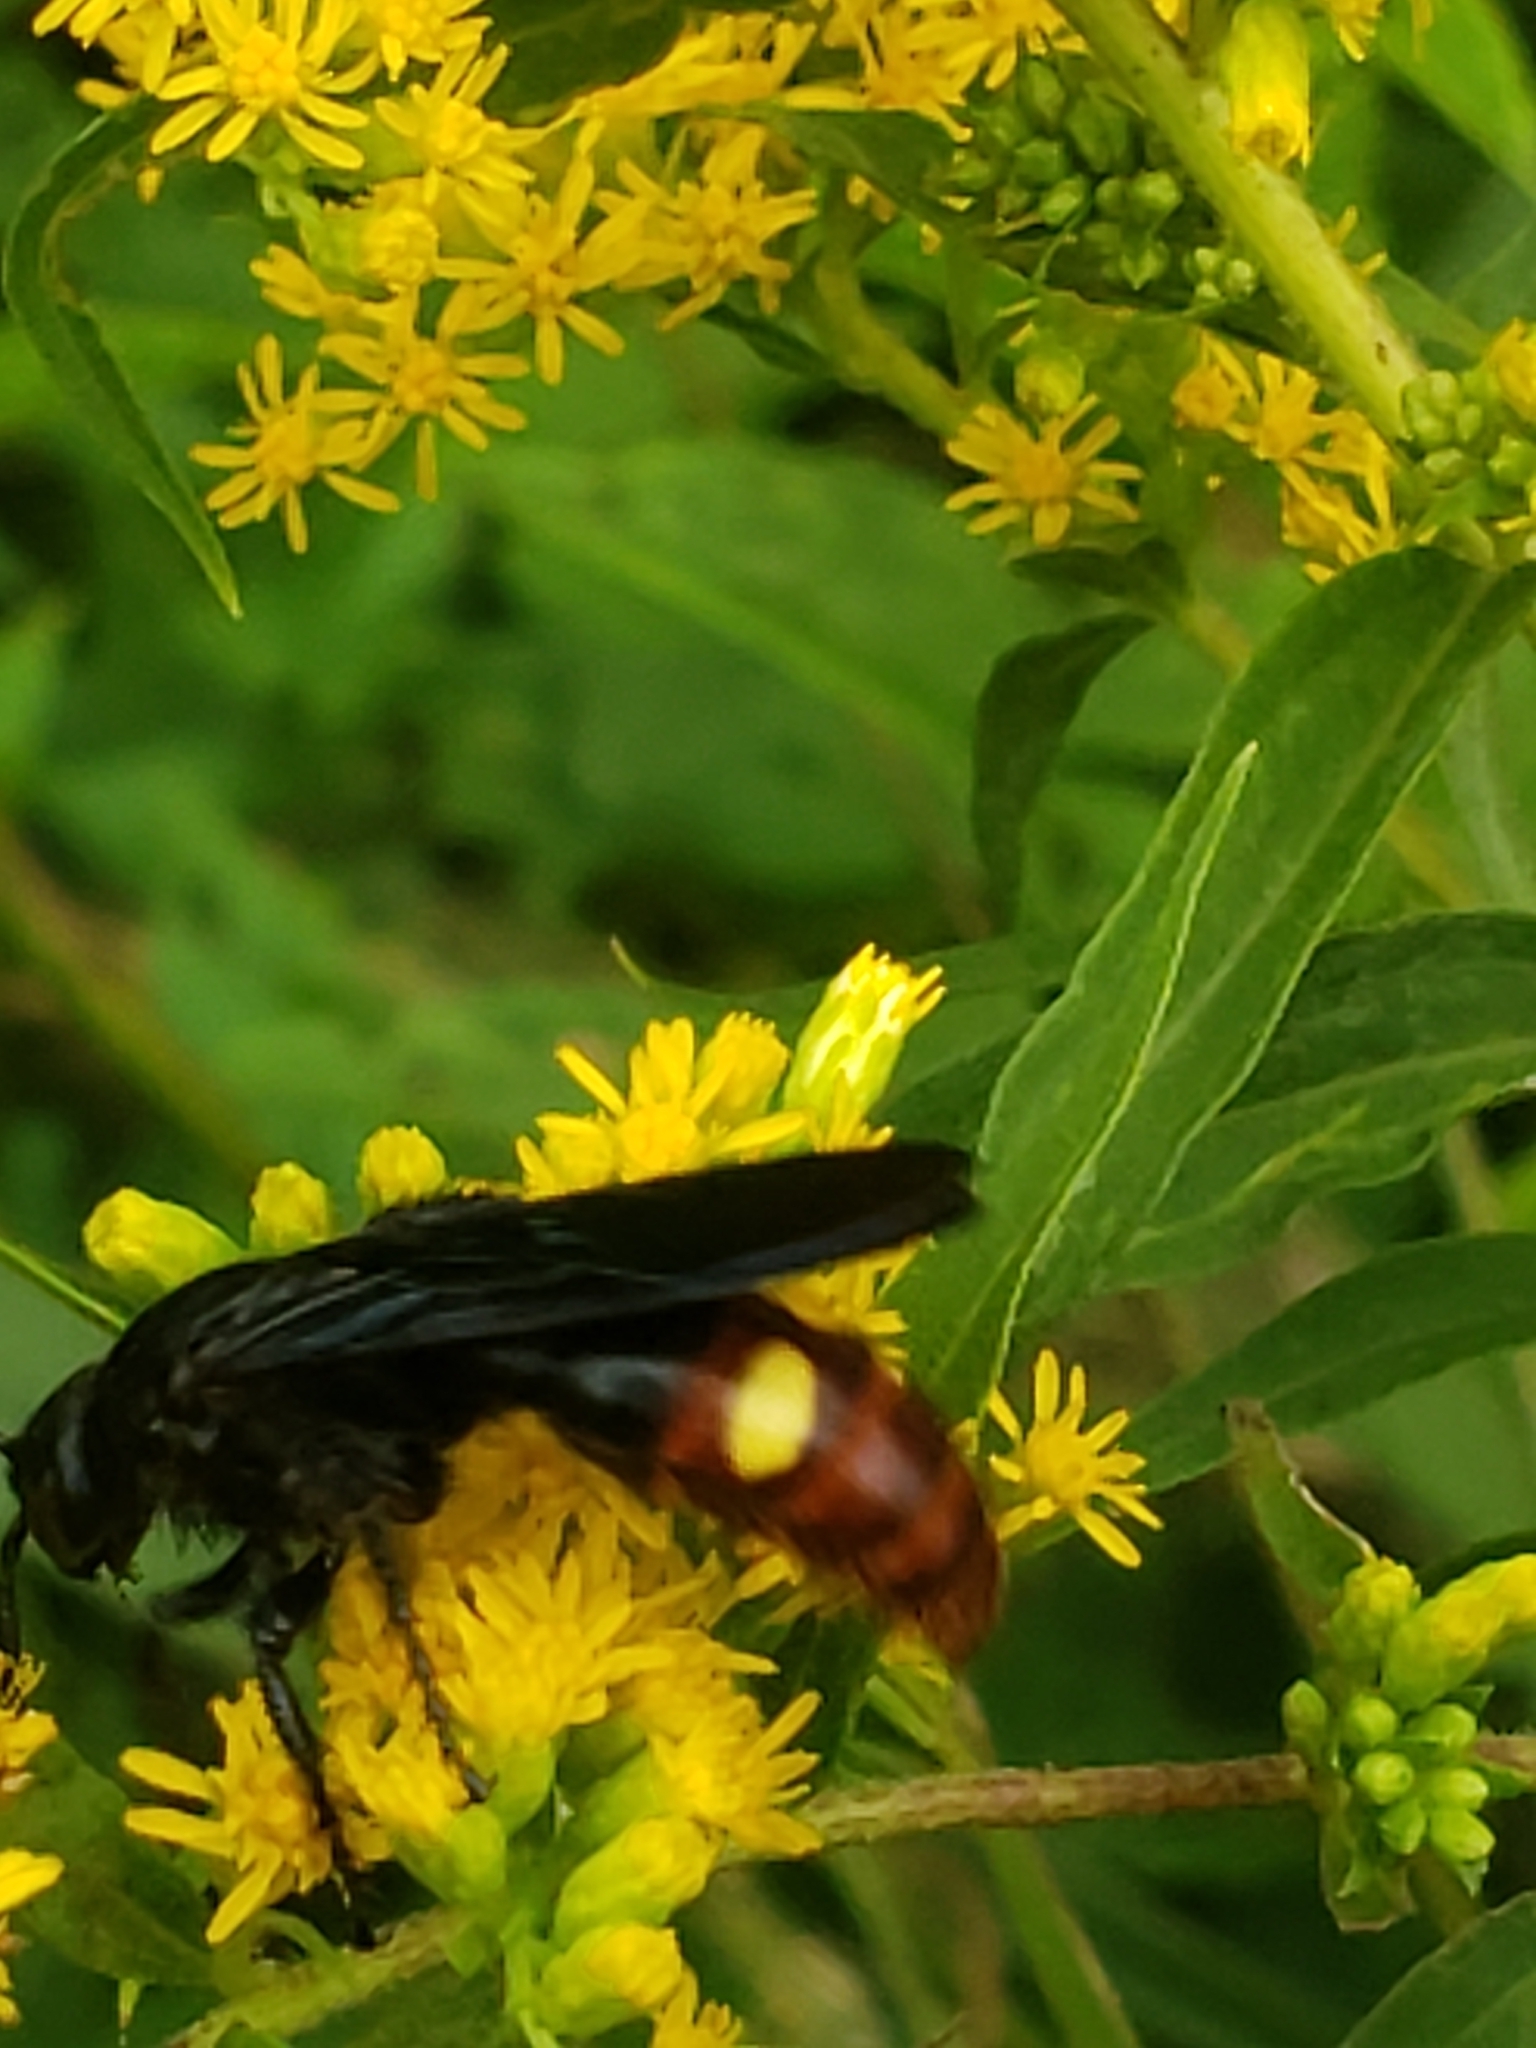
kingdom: Animalia
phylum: Arthropoda
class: Insecta
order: Hymenoptera
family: Scoliidae
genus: Scolia
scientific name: Scolia dubia
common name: Blue-winged scoliid wasp
